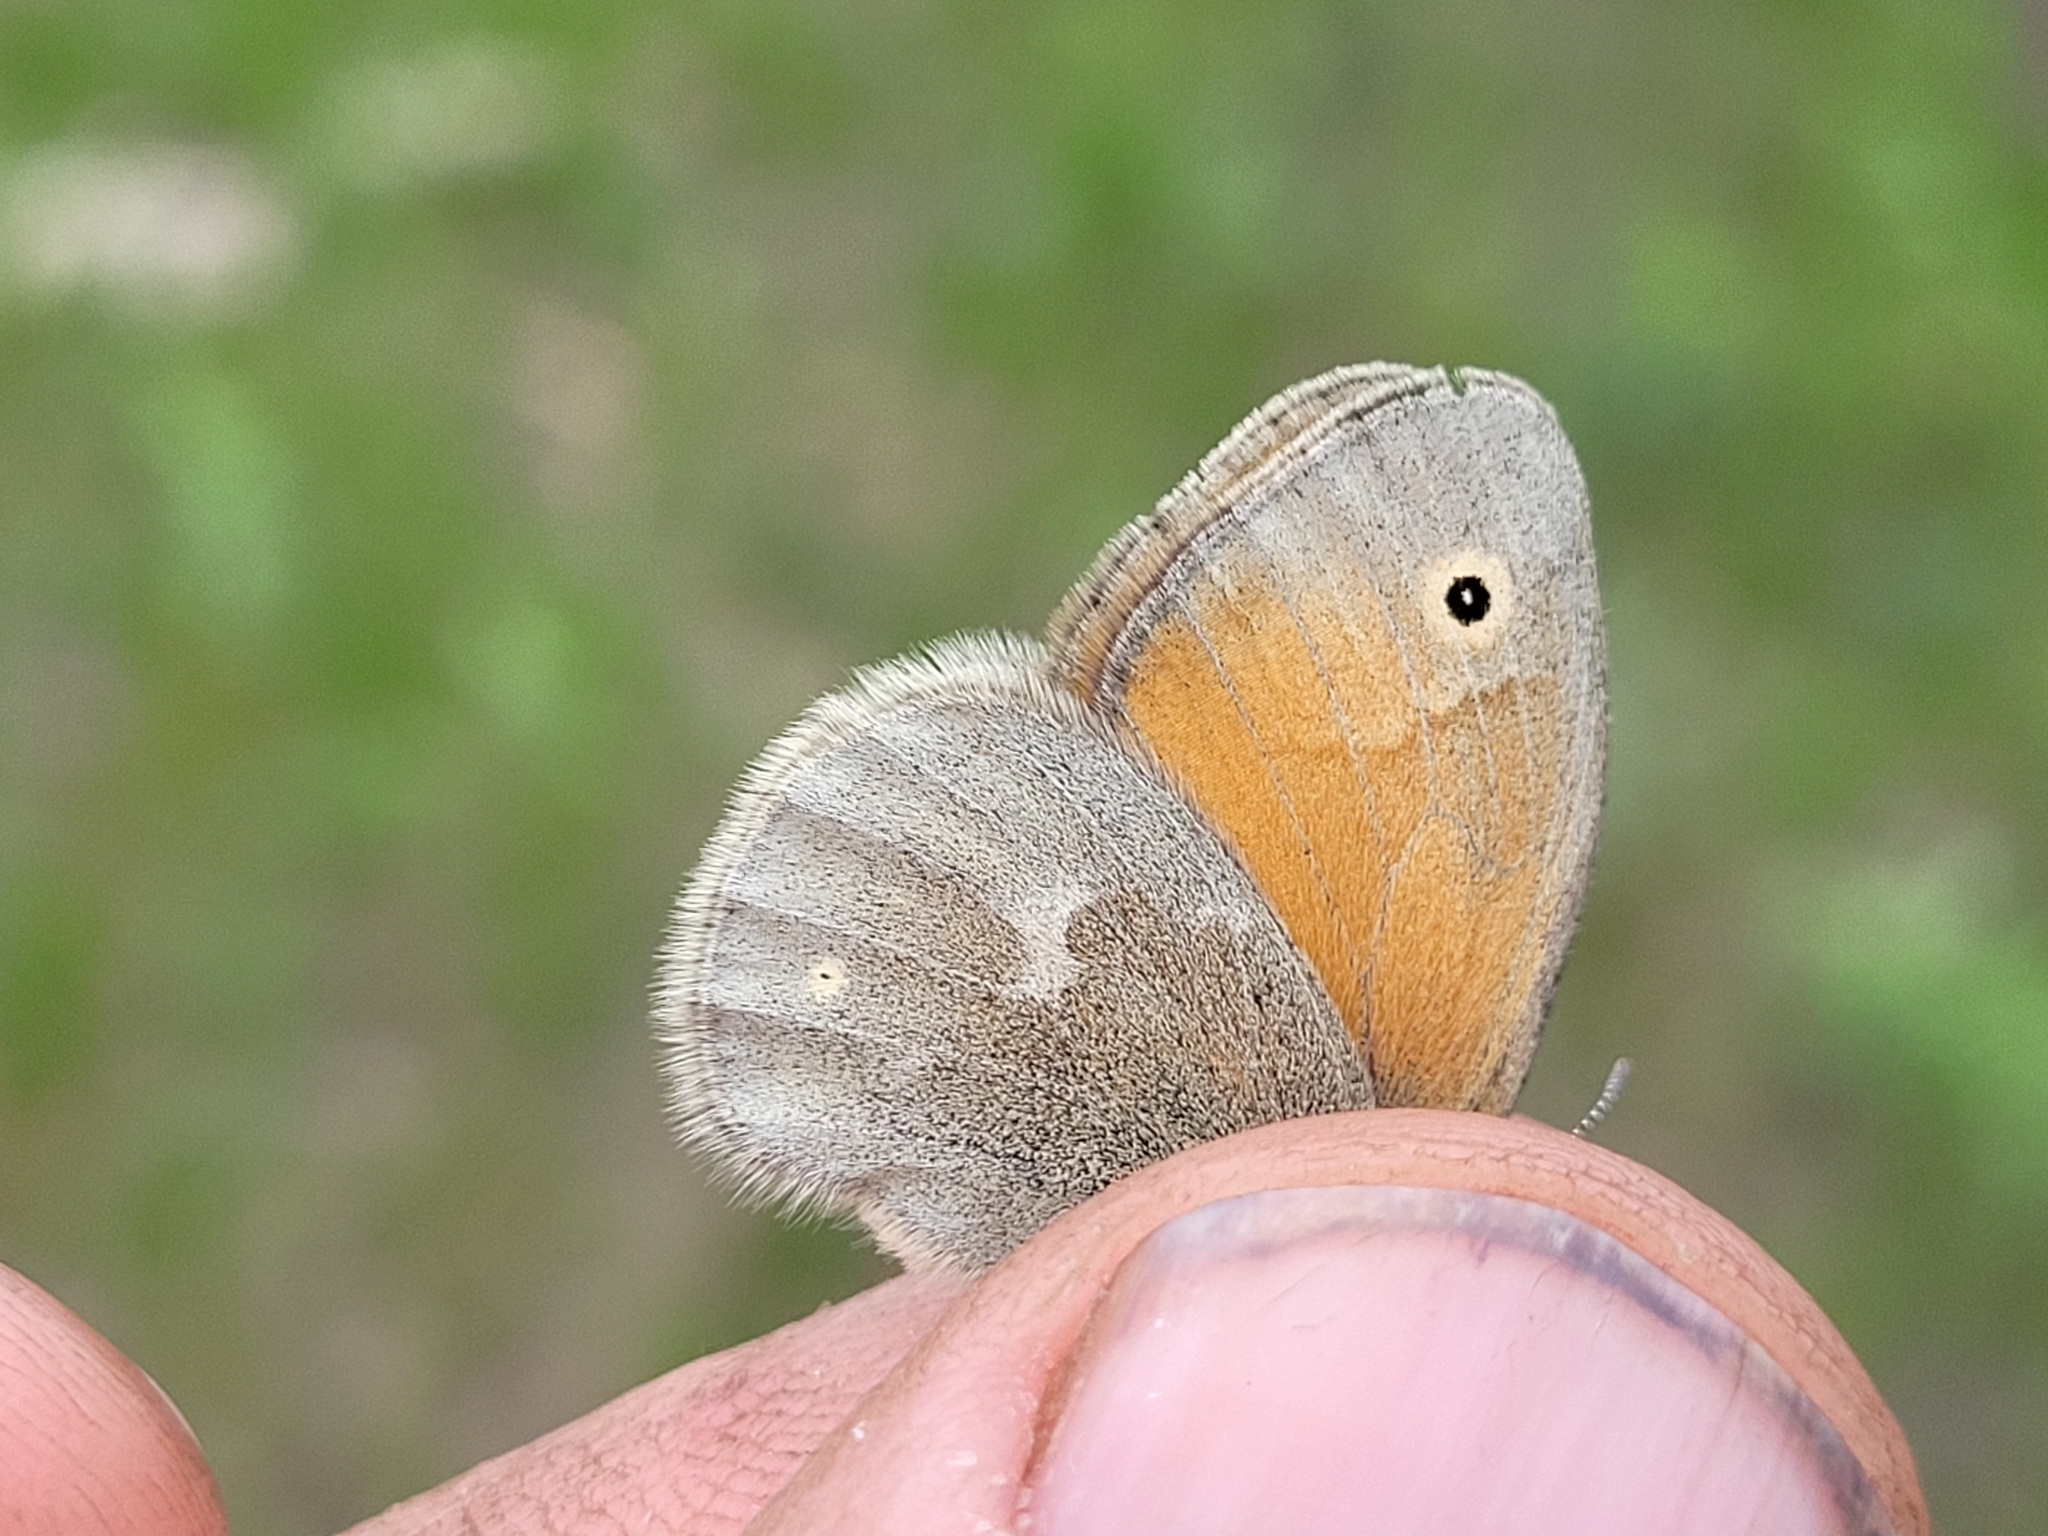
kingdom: Animalia
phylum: Arthropoda
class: Insecta
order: Lepidoptera
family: Nymphalidae
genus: Coenonympha
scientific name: Coenonympha california
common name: Common ringlet
